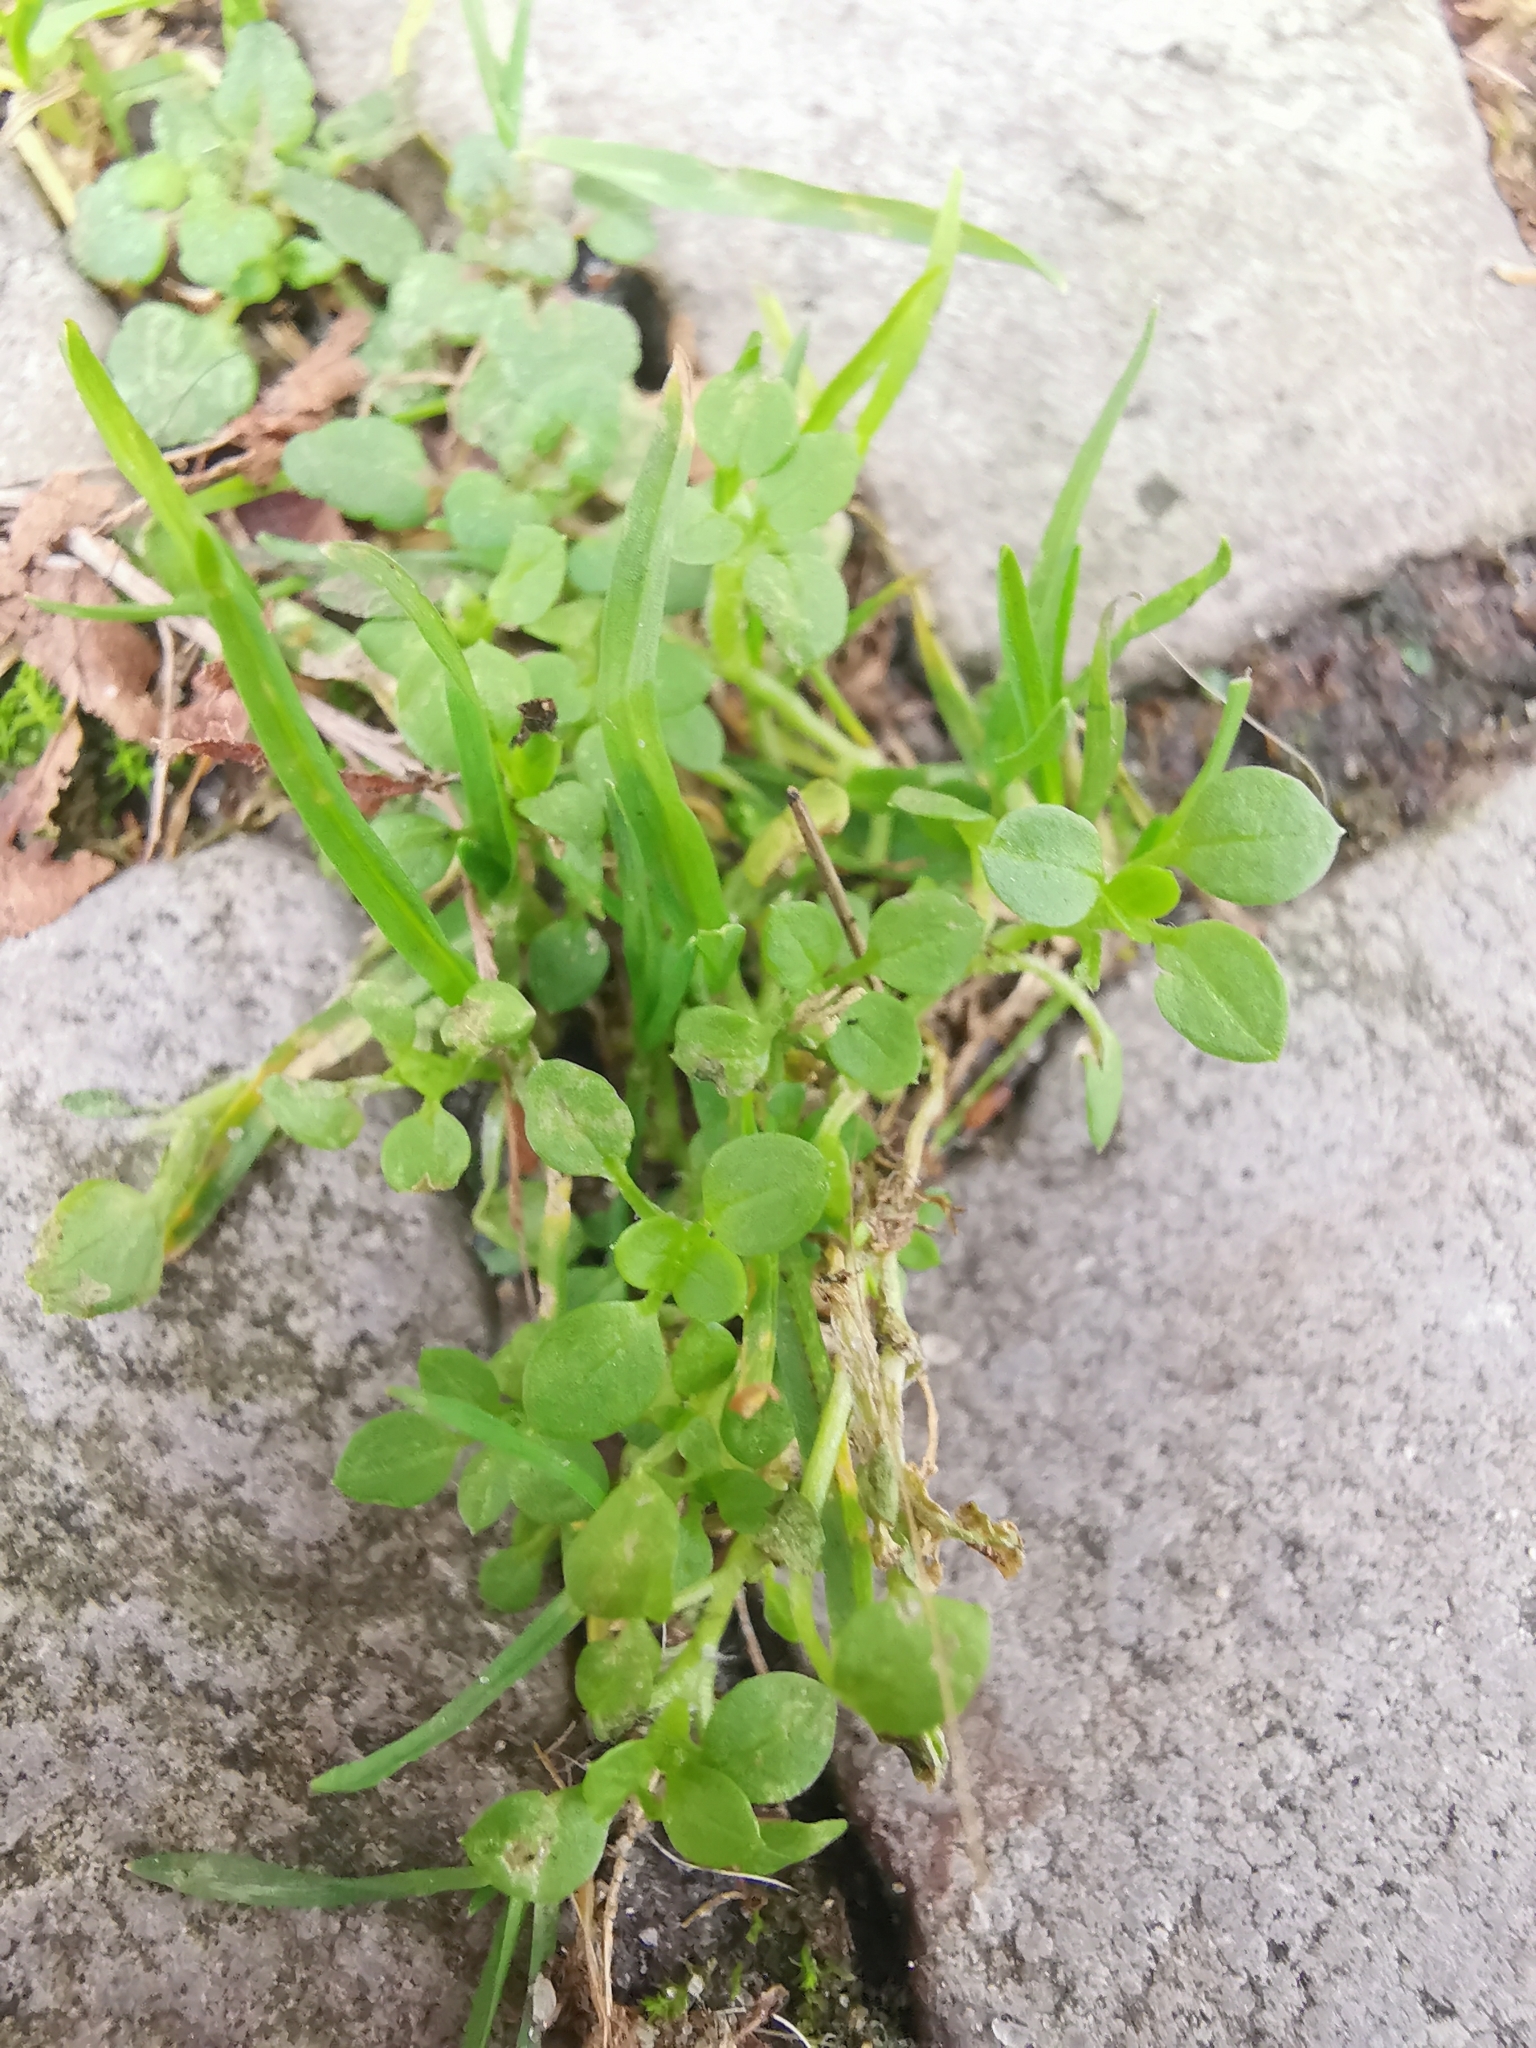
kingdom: Plantae
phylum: Tracheophyta
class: Magnoliopsida
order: Caryophyllales
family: Caryophyllaceae
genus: Stellaria
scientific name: Stellaria media
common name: Common chickweed
